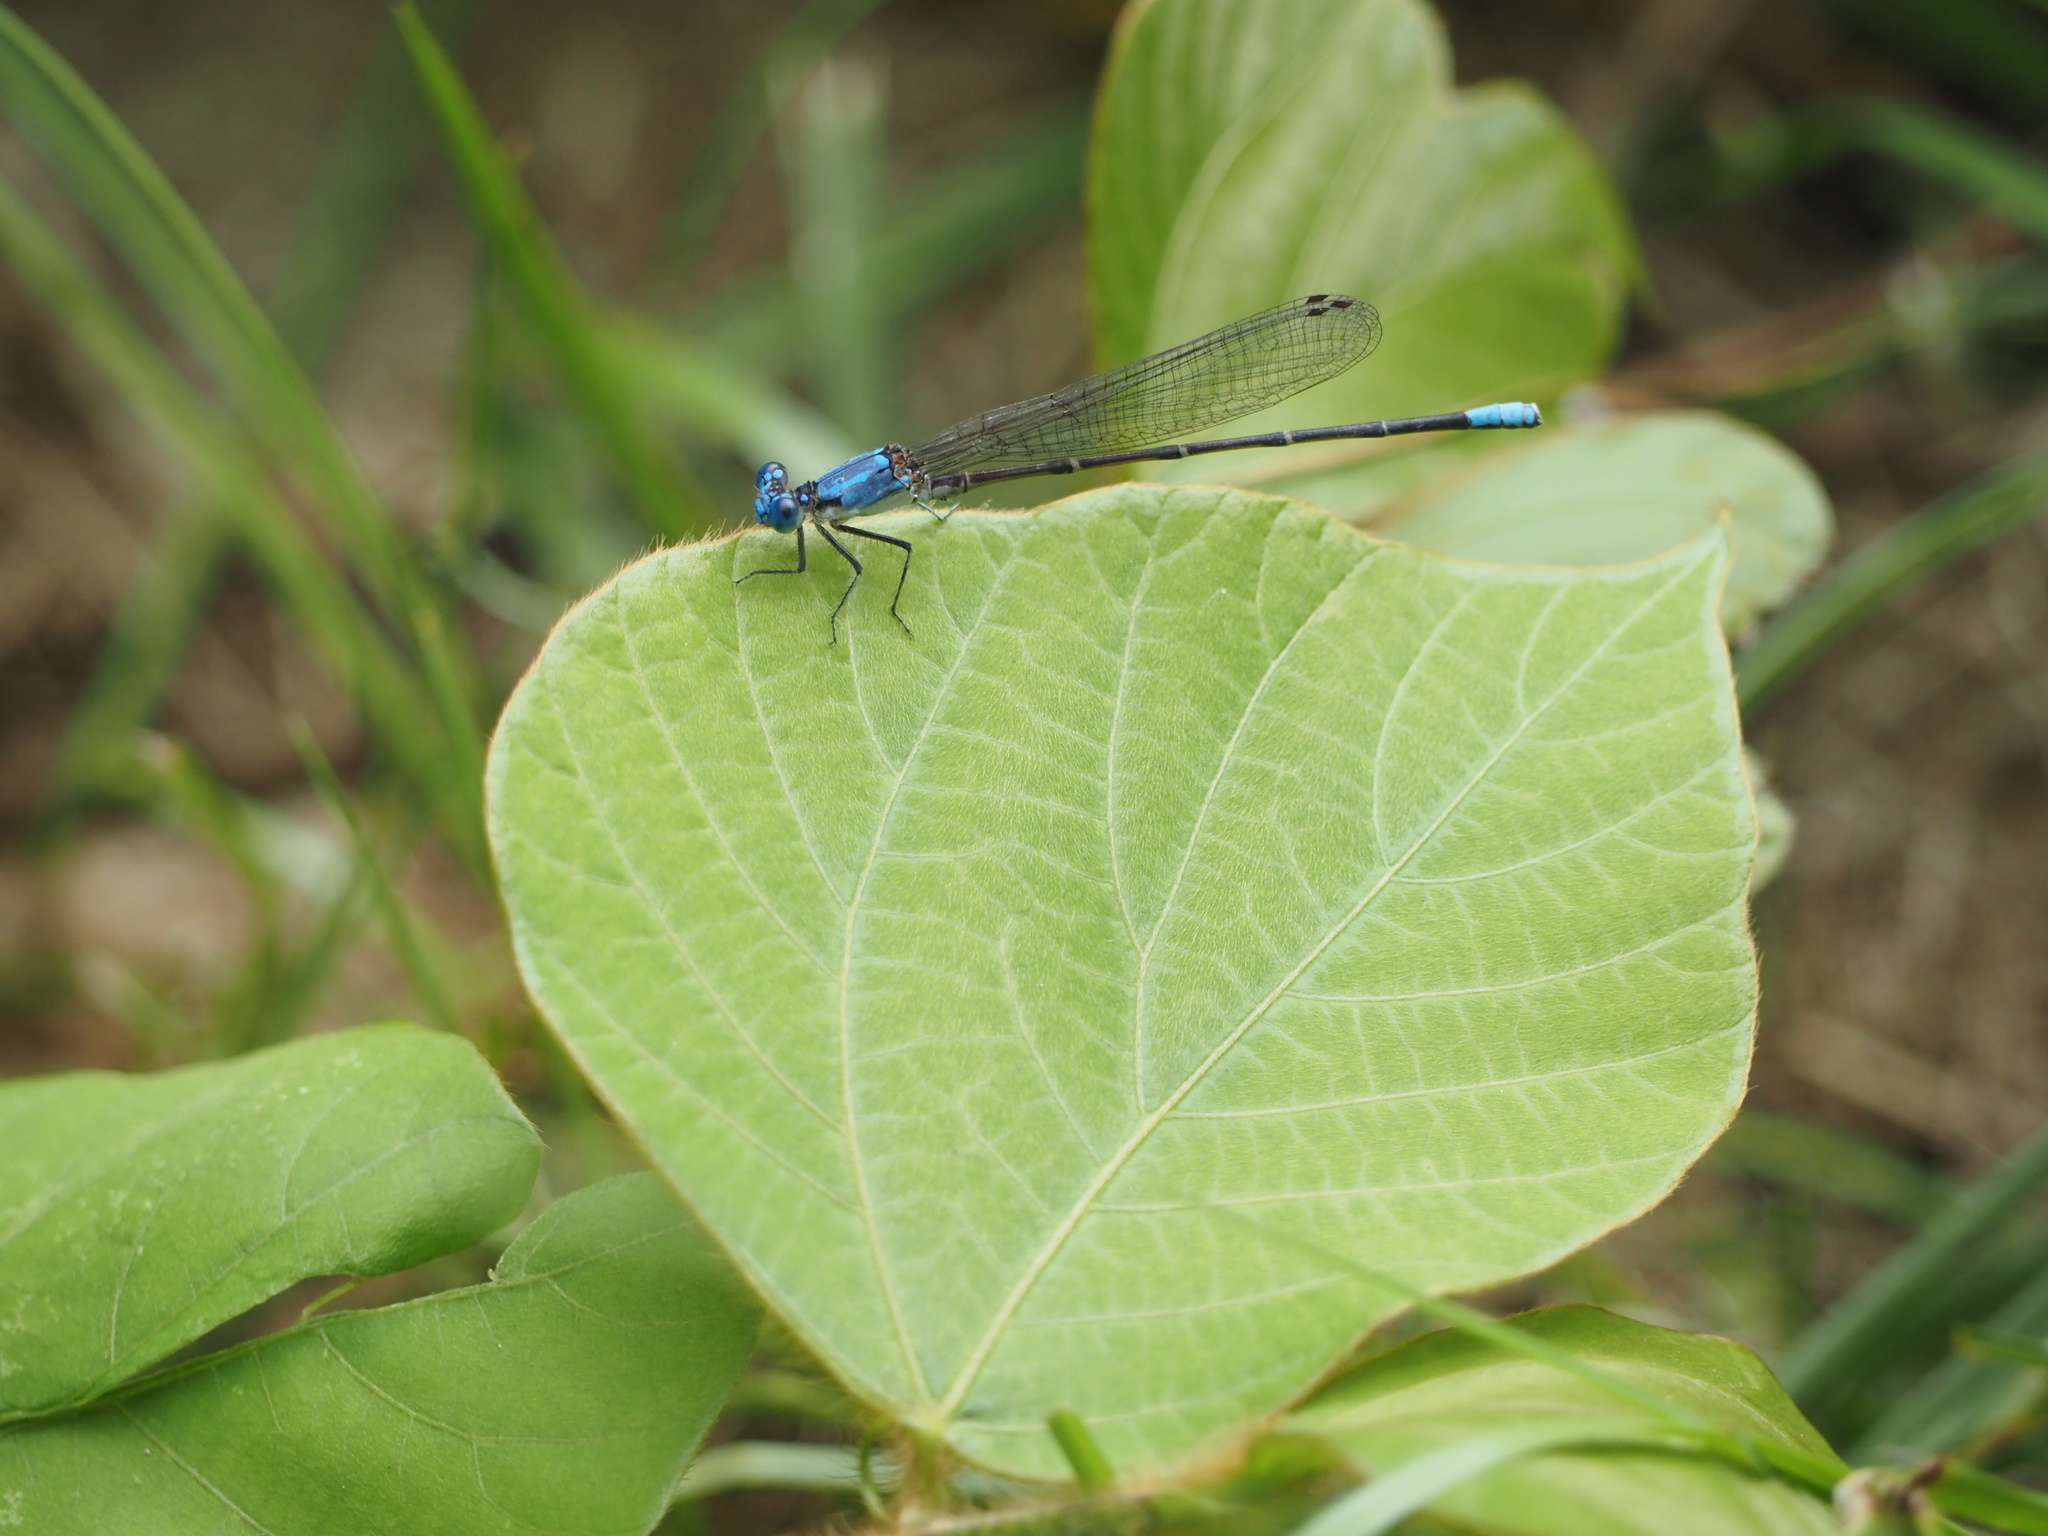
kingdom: Animalia
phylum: Arthropoda
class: Insecta
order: Odonata
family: Coenagrionidae
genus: Argia
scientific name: Argia apicalis
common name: Blue-fronted dancer
